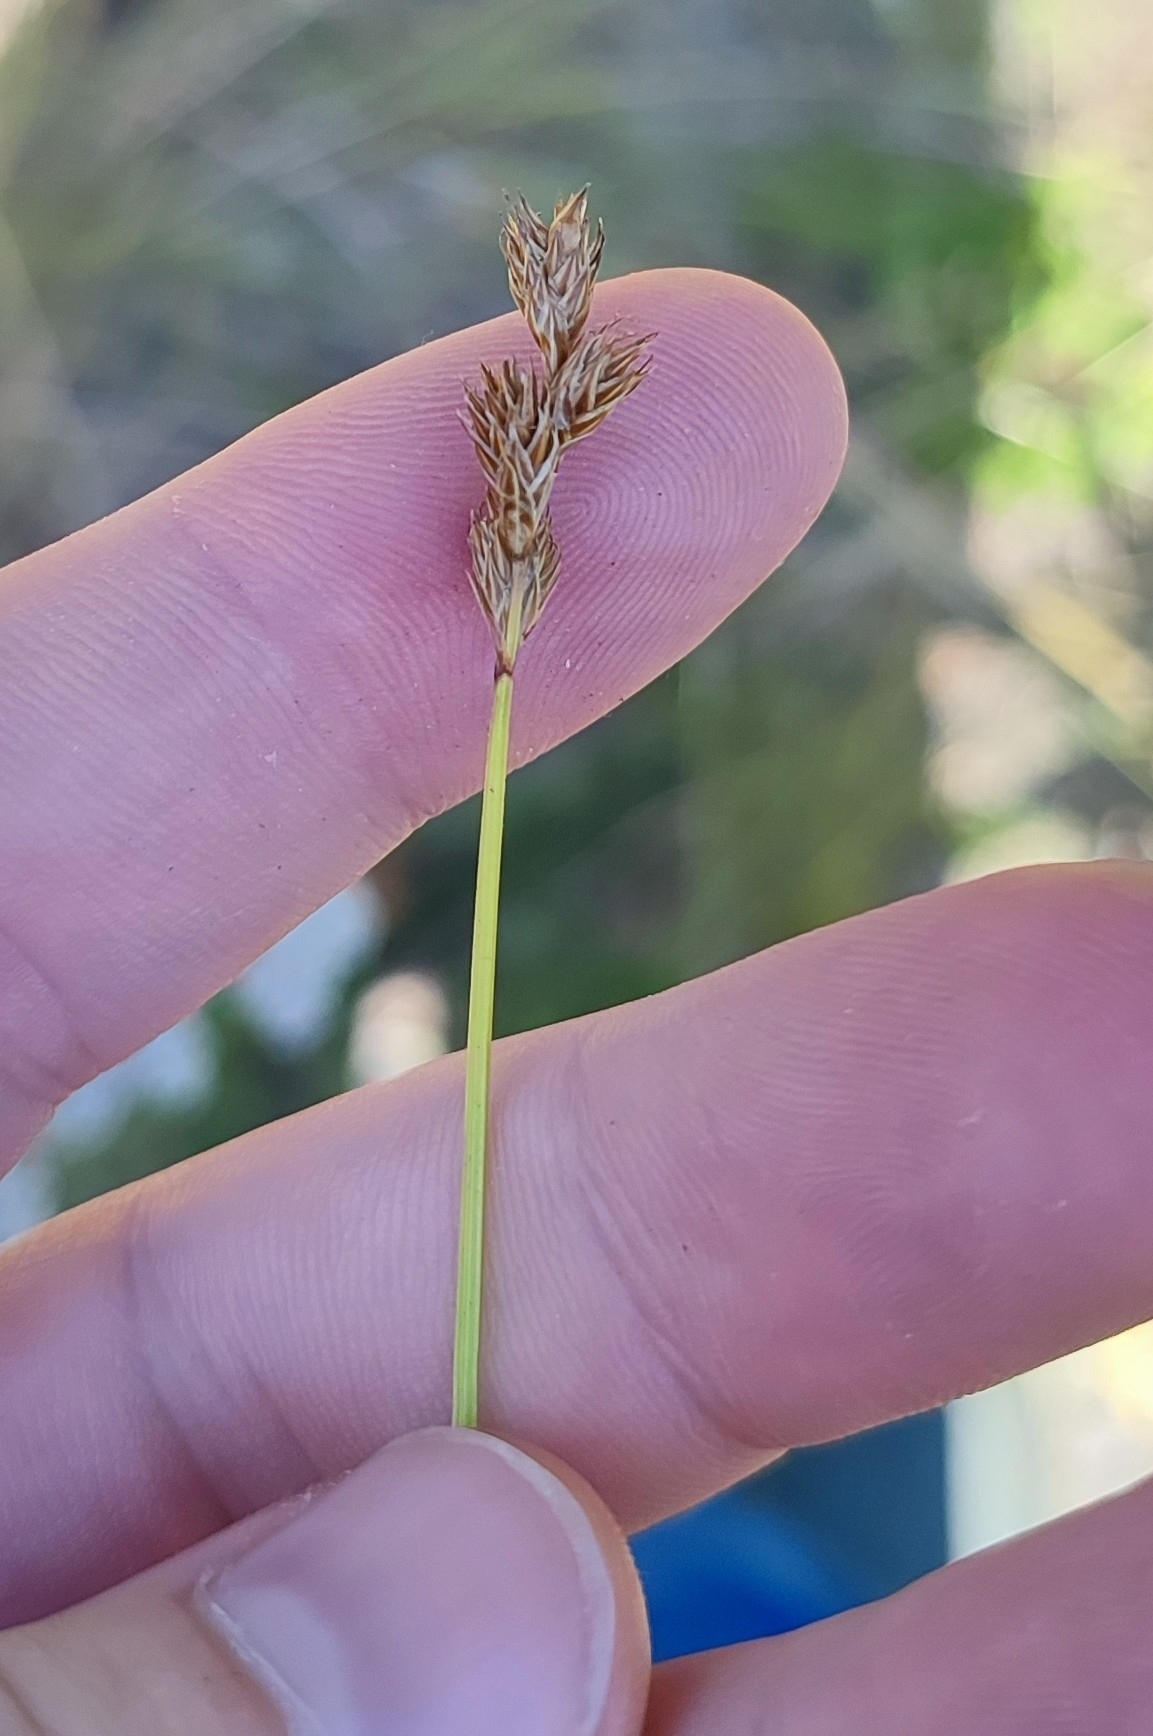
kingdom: Plantae
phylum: Tracheophyta
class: Liliopsida
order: Poales
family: Cyperaceae
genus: Carex
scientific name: Carex leporina
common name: Oval sedge
